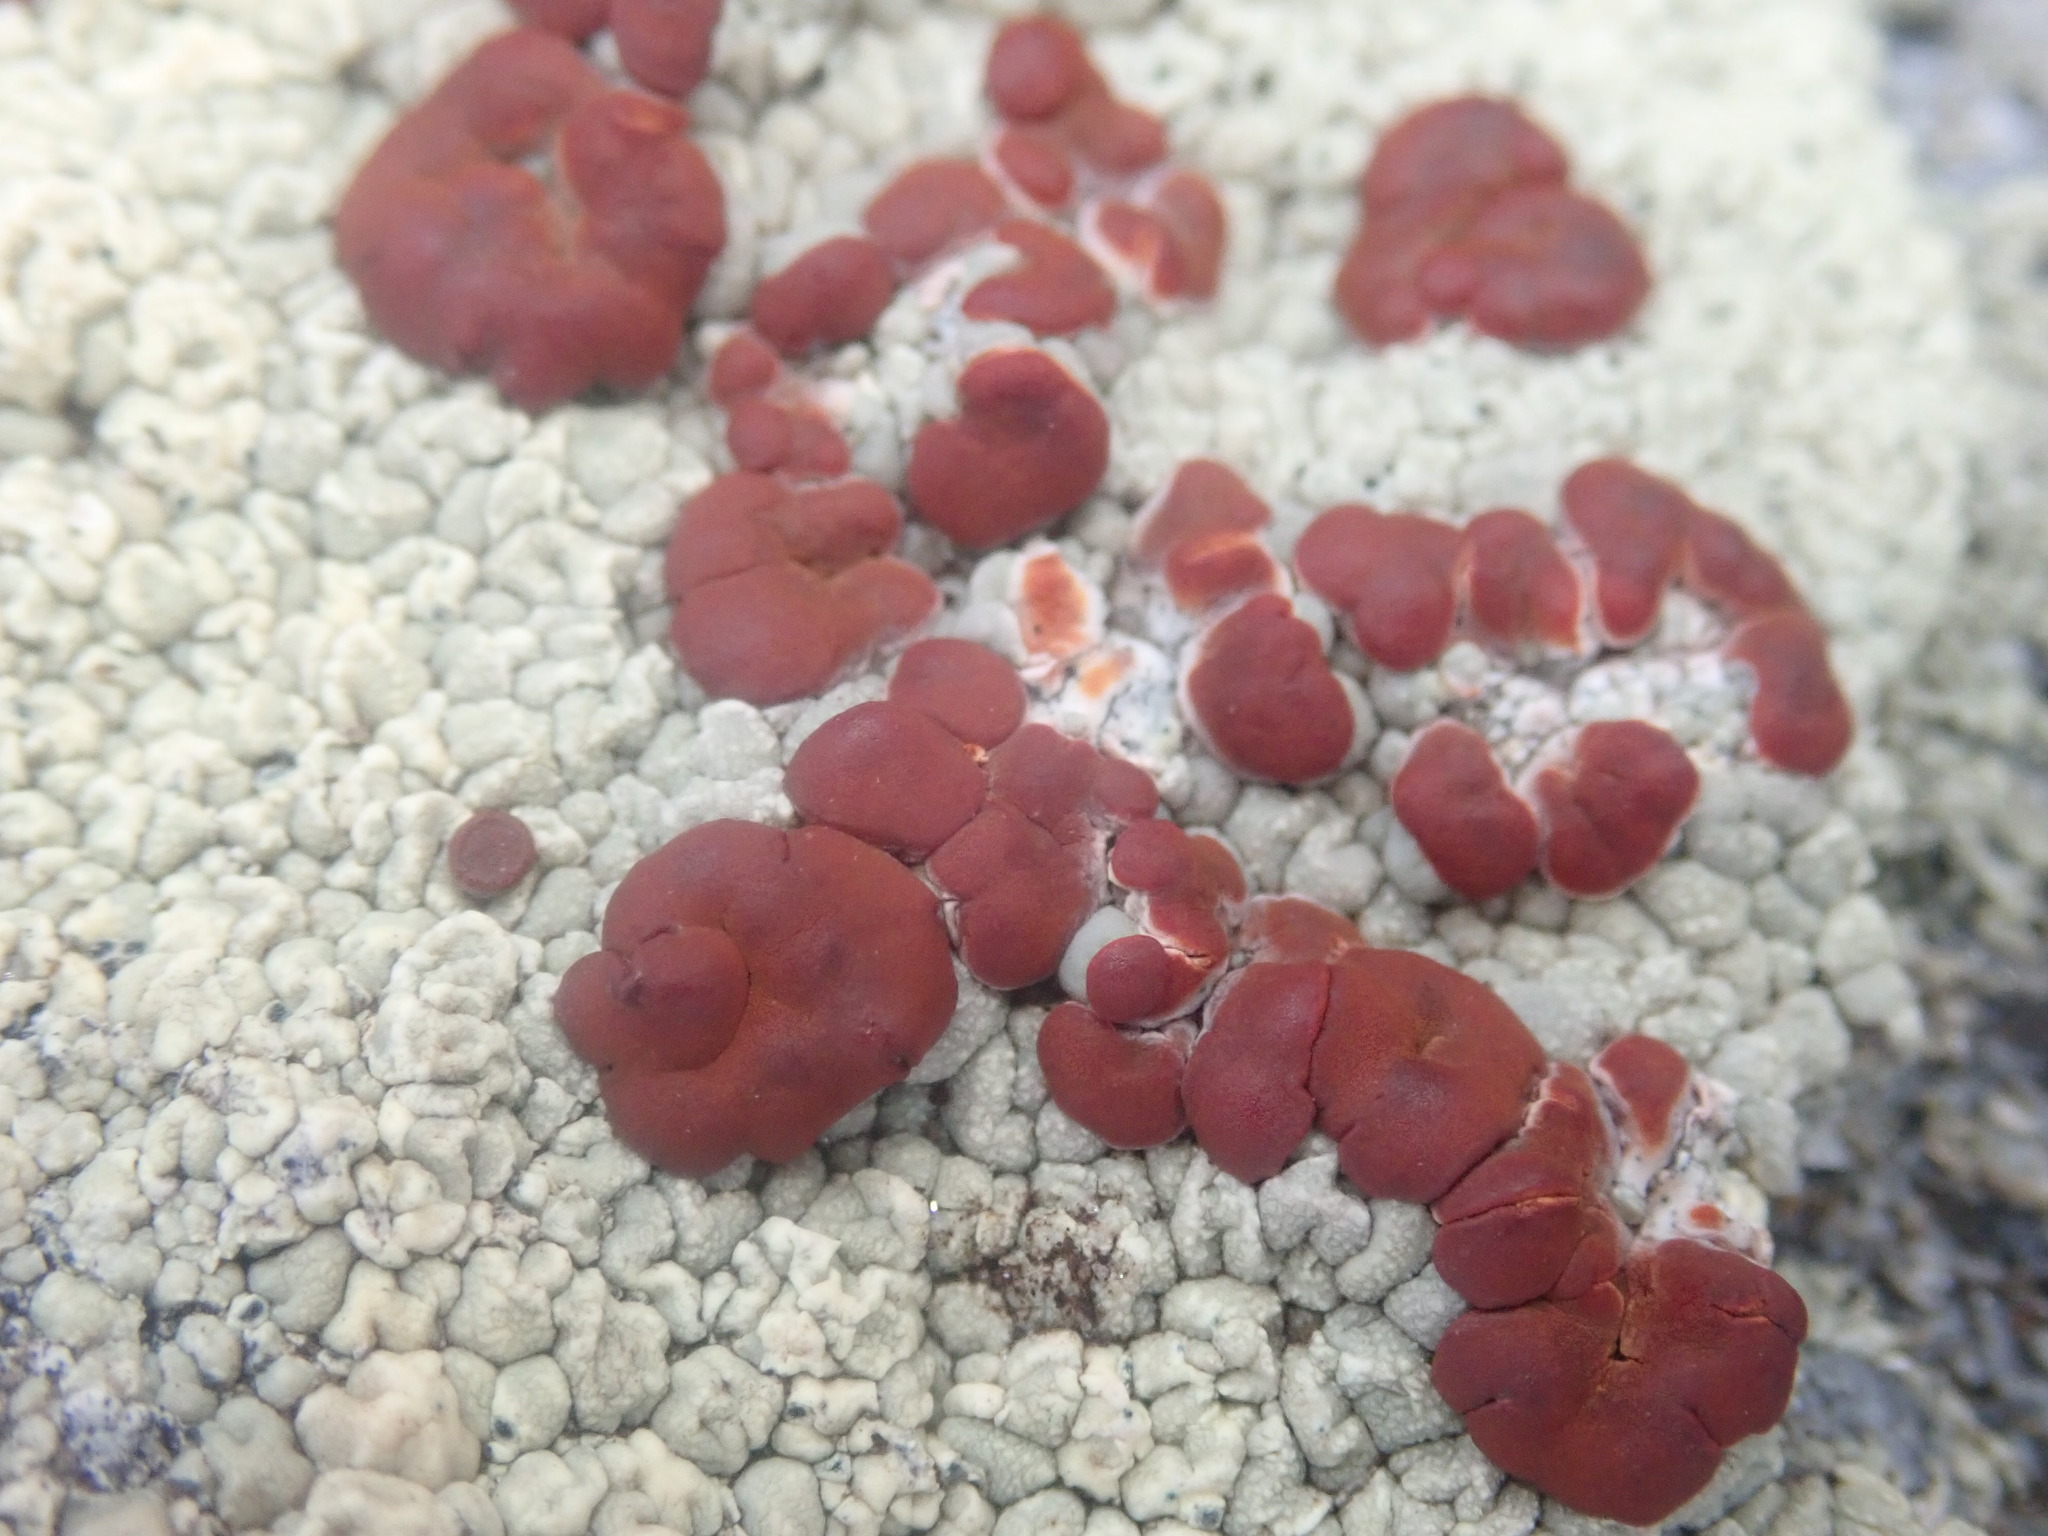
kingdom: Fungi
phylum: Ascomycota
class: Lecanoromycetes
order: Umbilicariales
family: Ophioparmaceae
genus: Ophioparma
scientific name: Ophioparma ventosa
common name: Blood-spot
